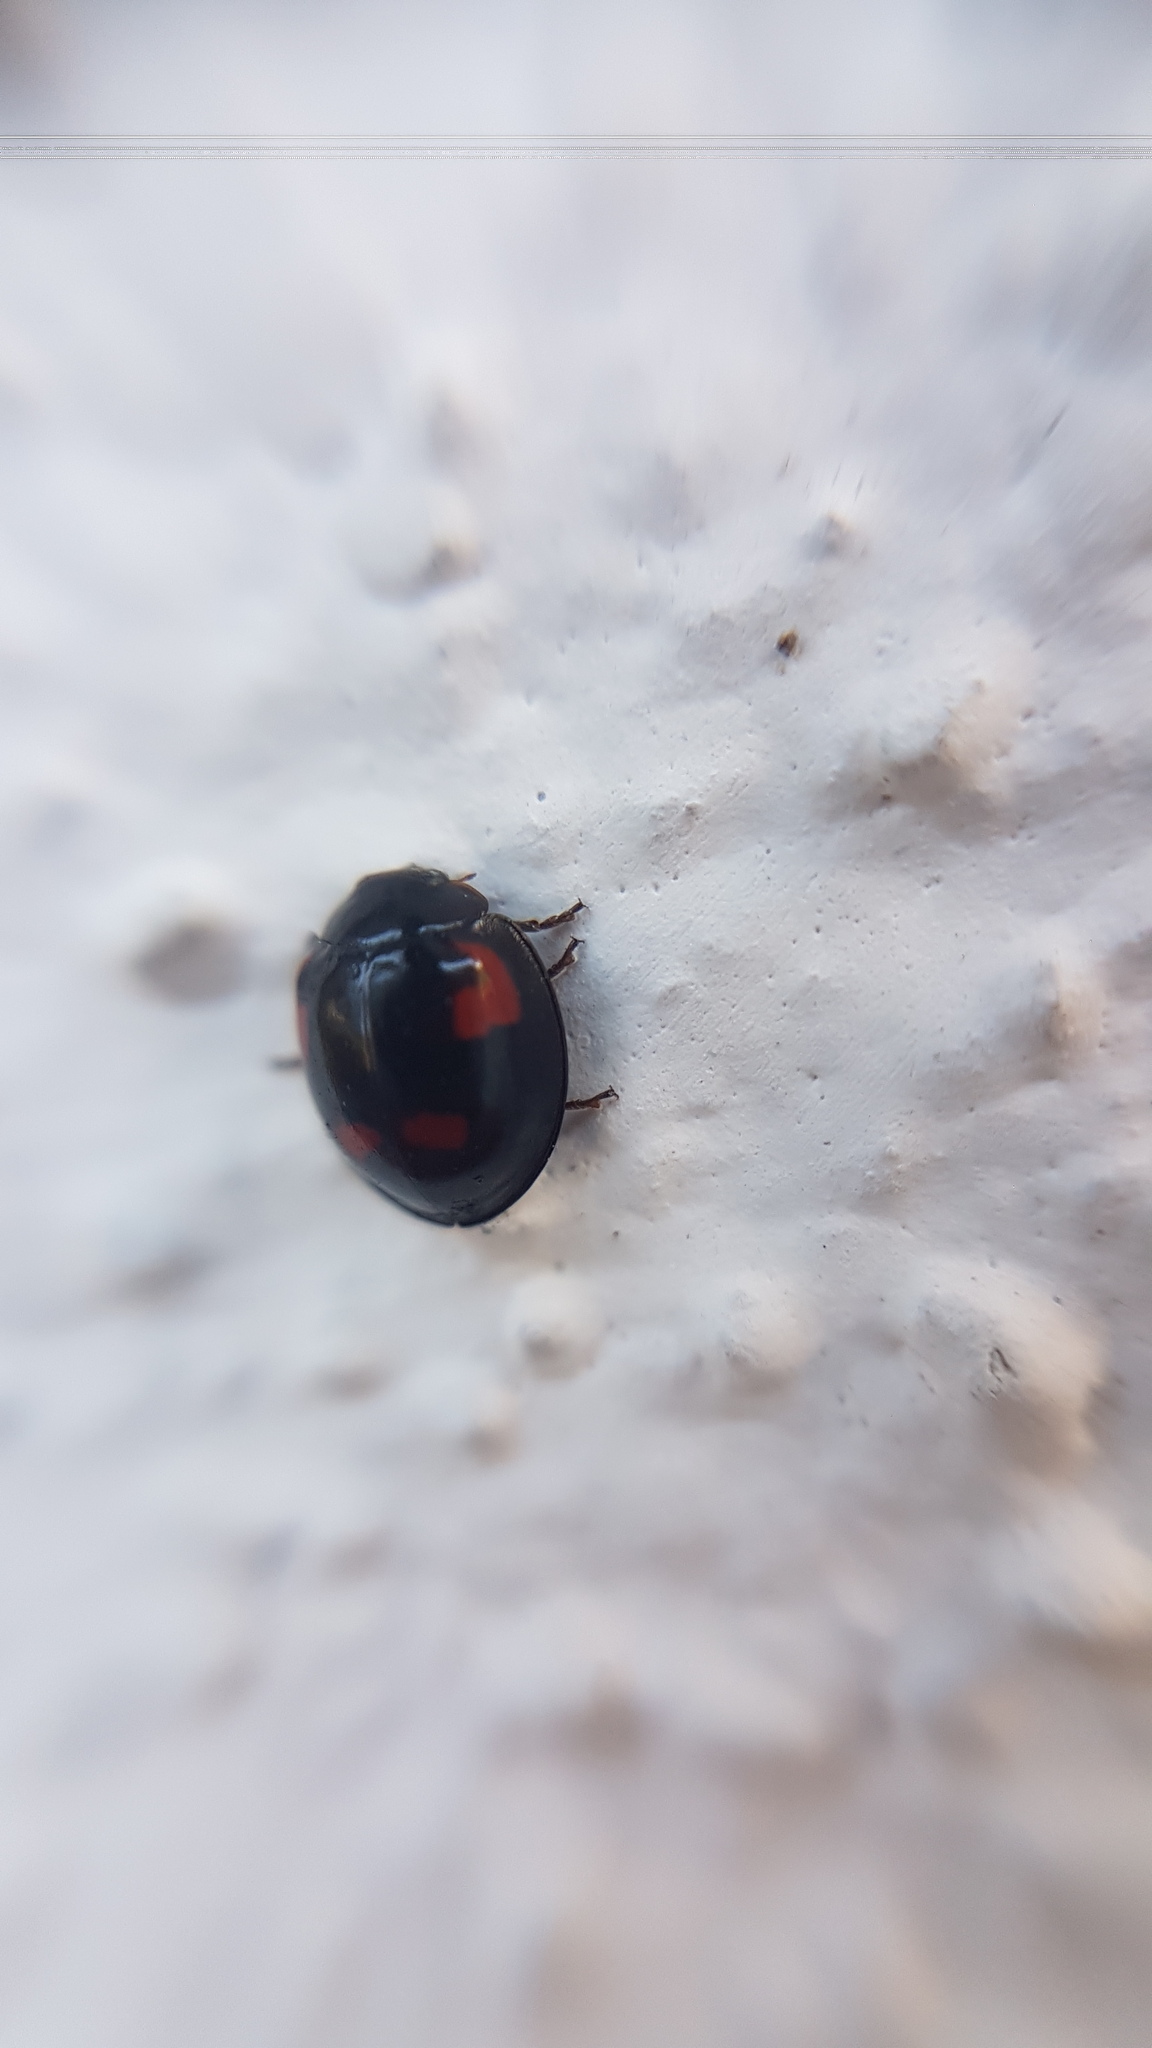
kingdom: Animalia
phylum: Arthropoda
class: Insecta
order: Coleoptera
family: Coccinellidae
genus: Brumus
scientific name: Brumus quadripustulatus
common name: Ladybird beetle
